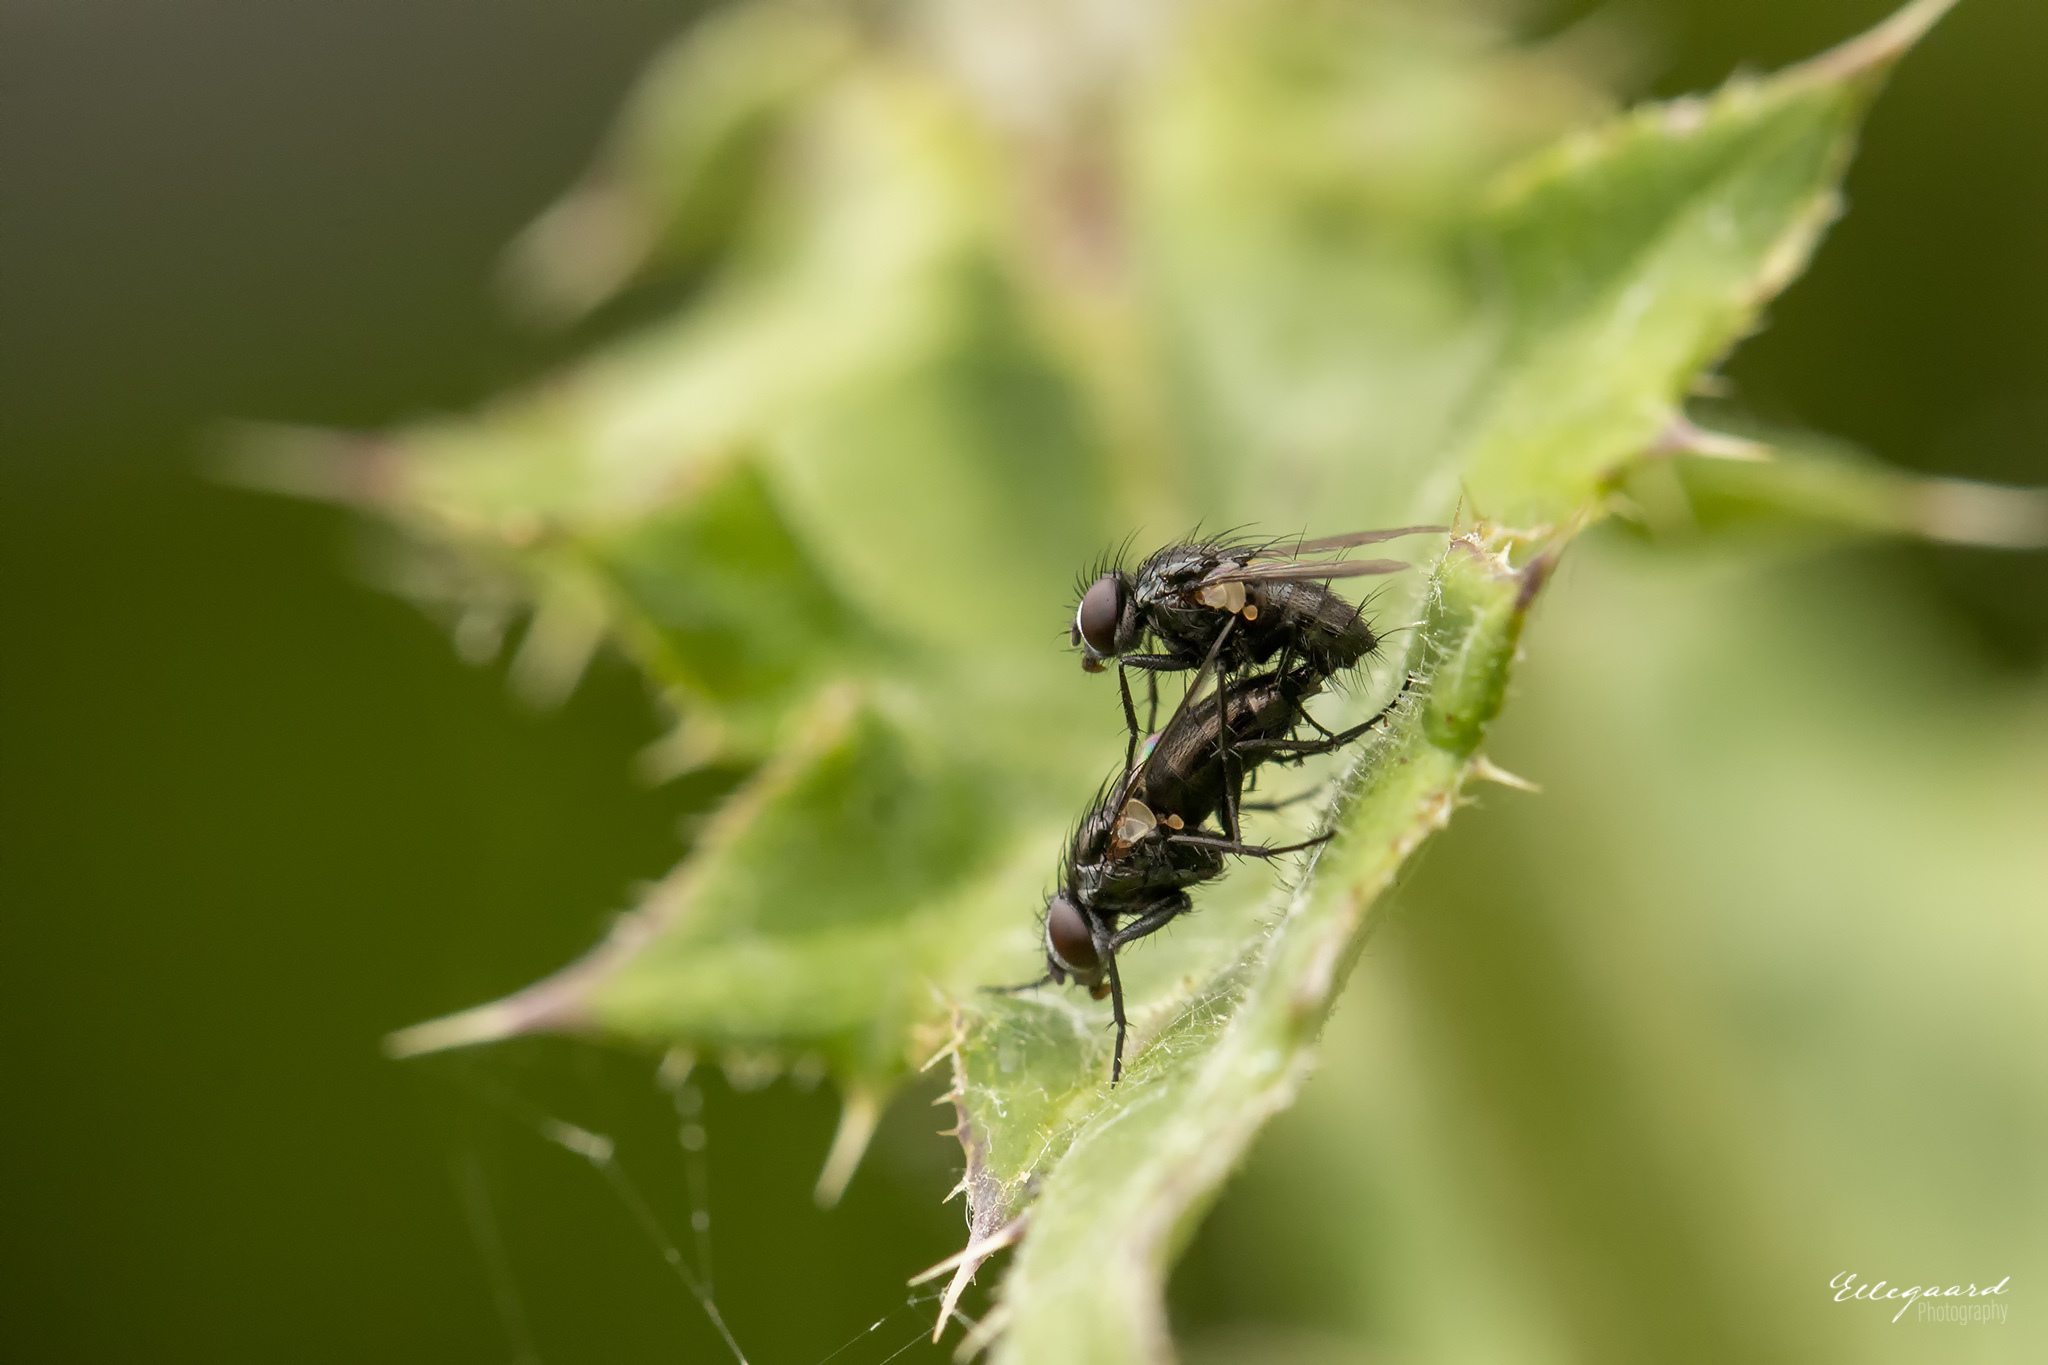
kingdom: Animalia
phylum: Arthropoda
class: Insecta
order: Diptera
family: Calliphoridae
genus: Rhinophora
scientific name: Rhinophora lepida
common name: Pouting woodlouse-fly
